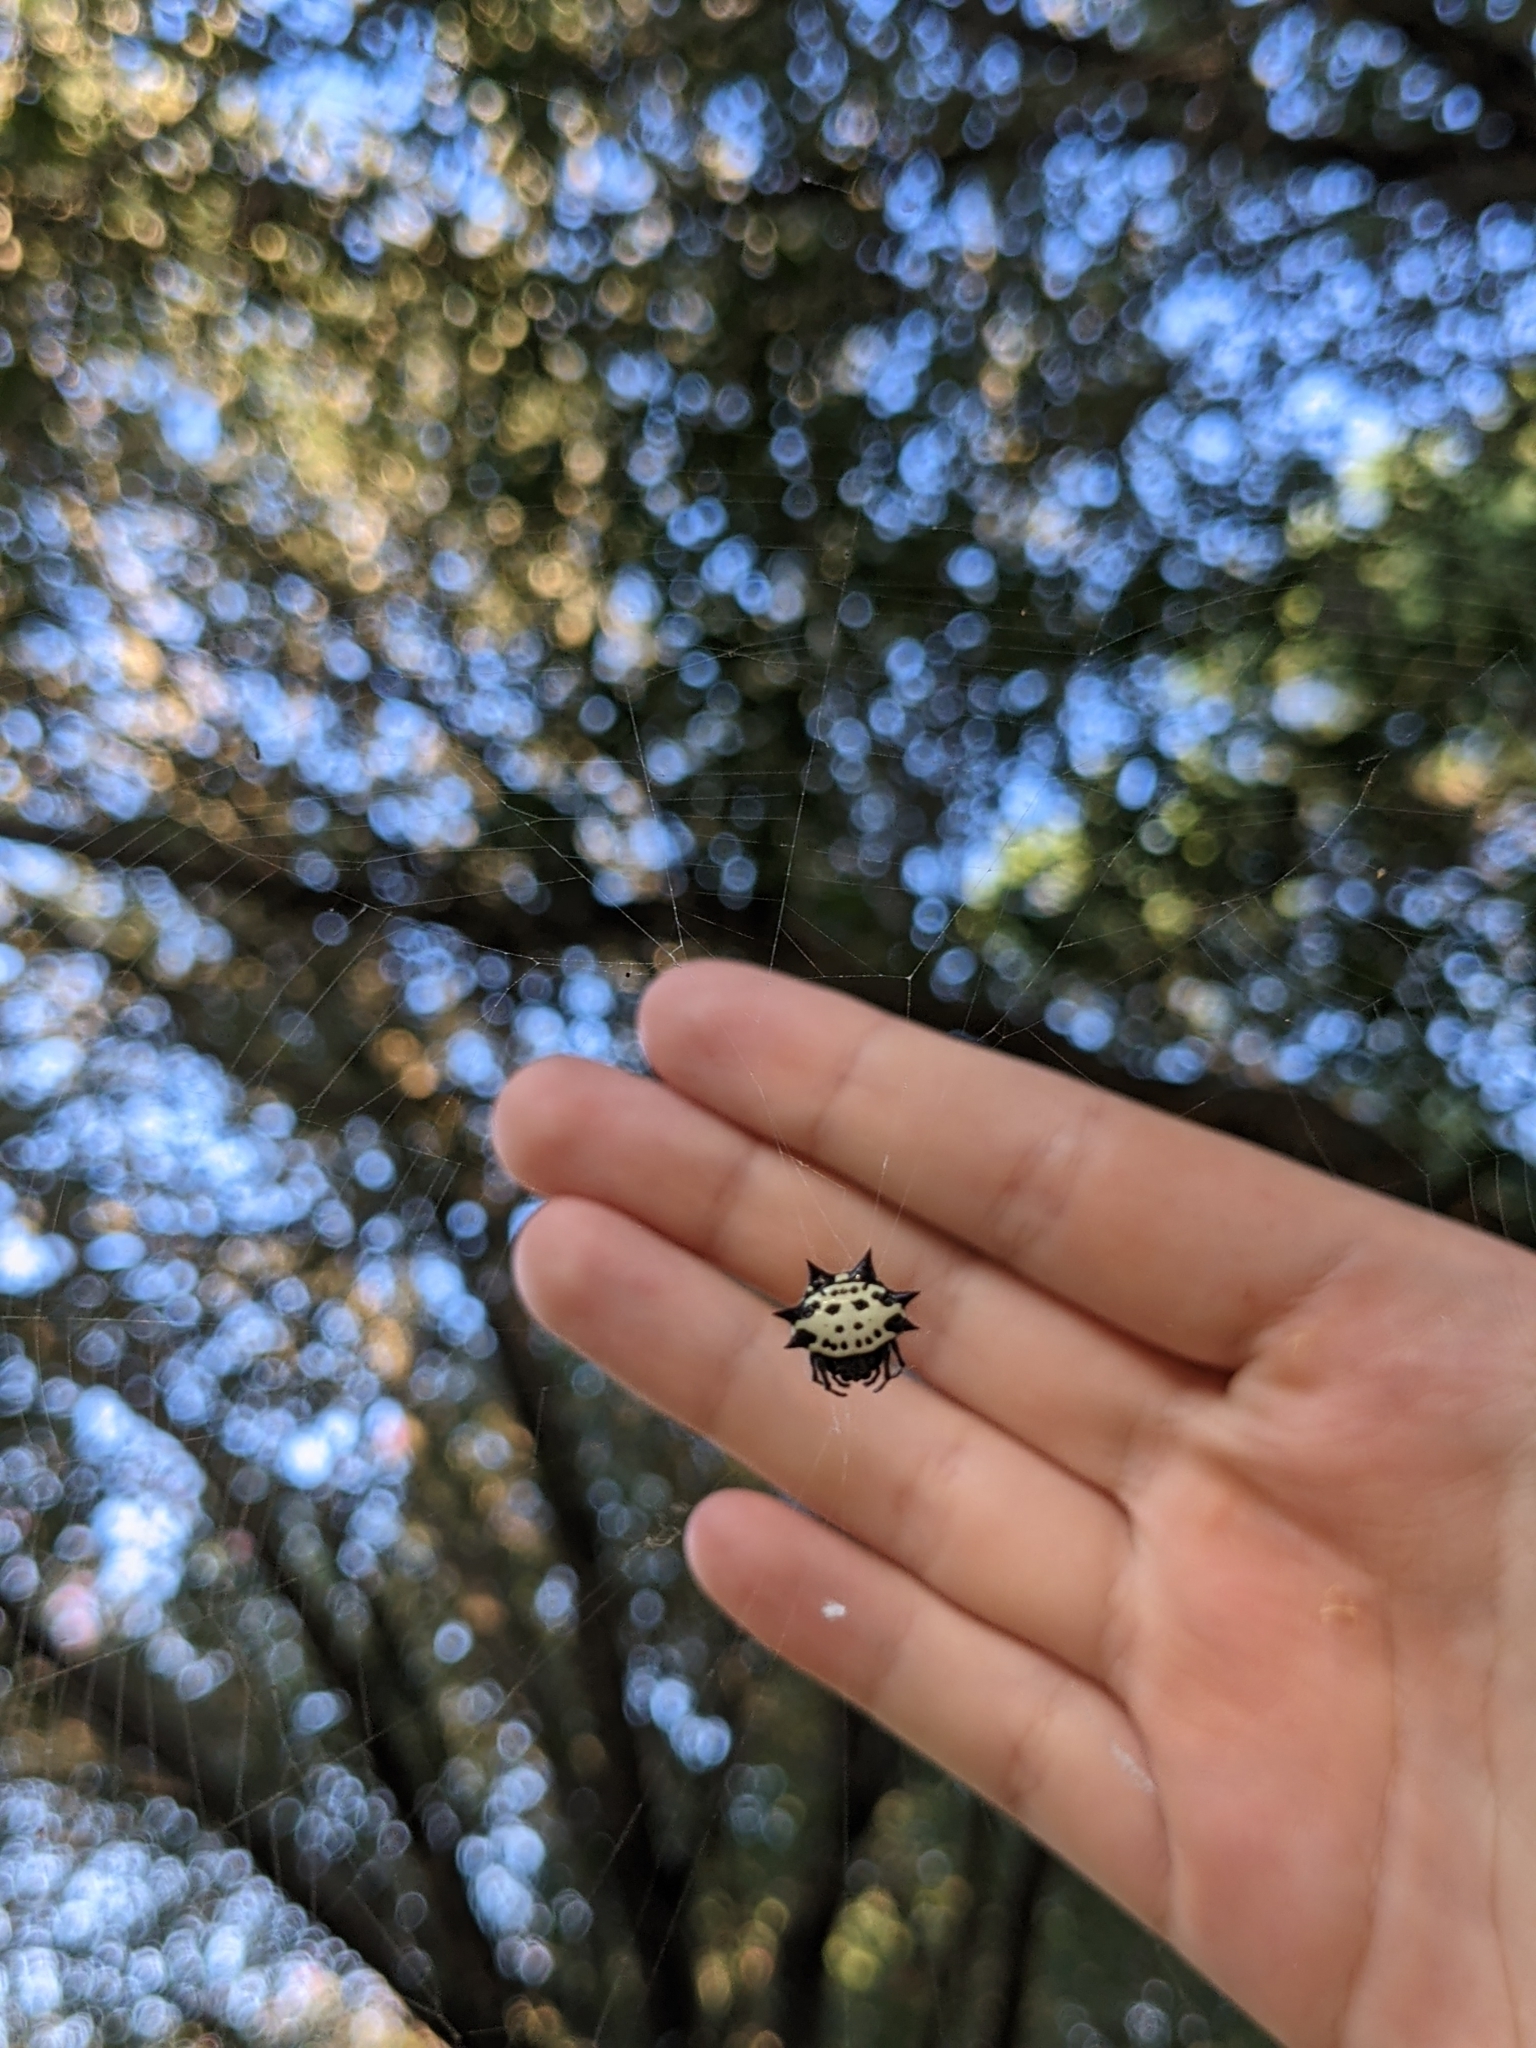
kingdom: Animalia
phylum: Arthropoda
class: Arachnida
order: Araneae
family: Araneidae
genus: Gasteracantha
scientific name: Gasteracantha cancriformis
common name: Orb weavers
